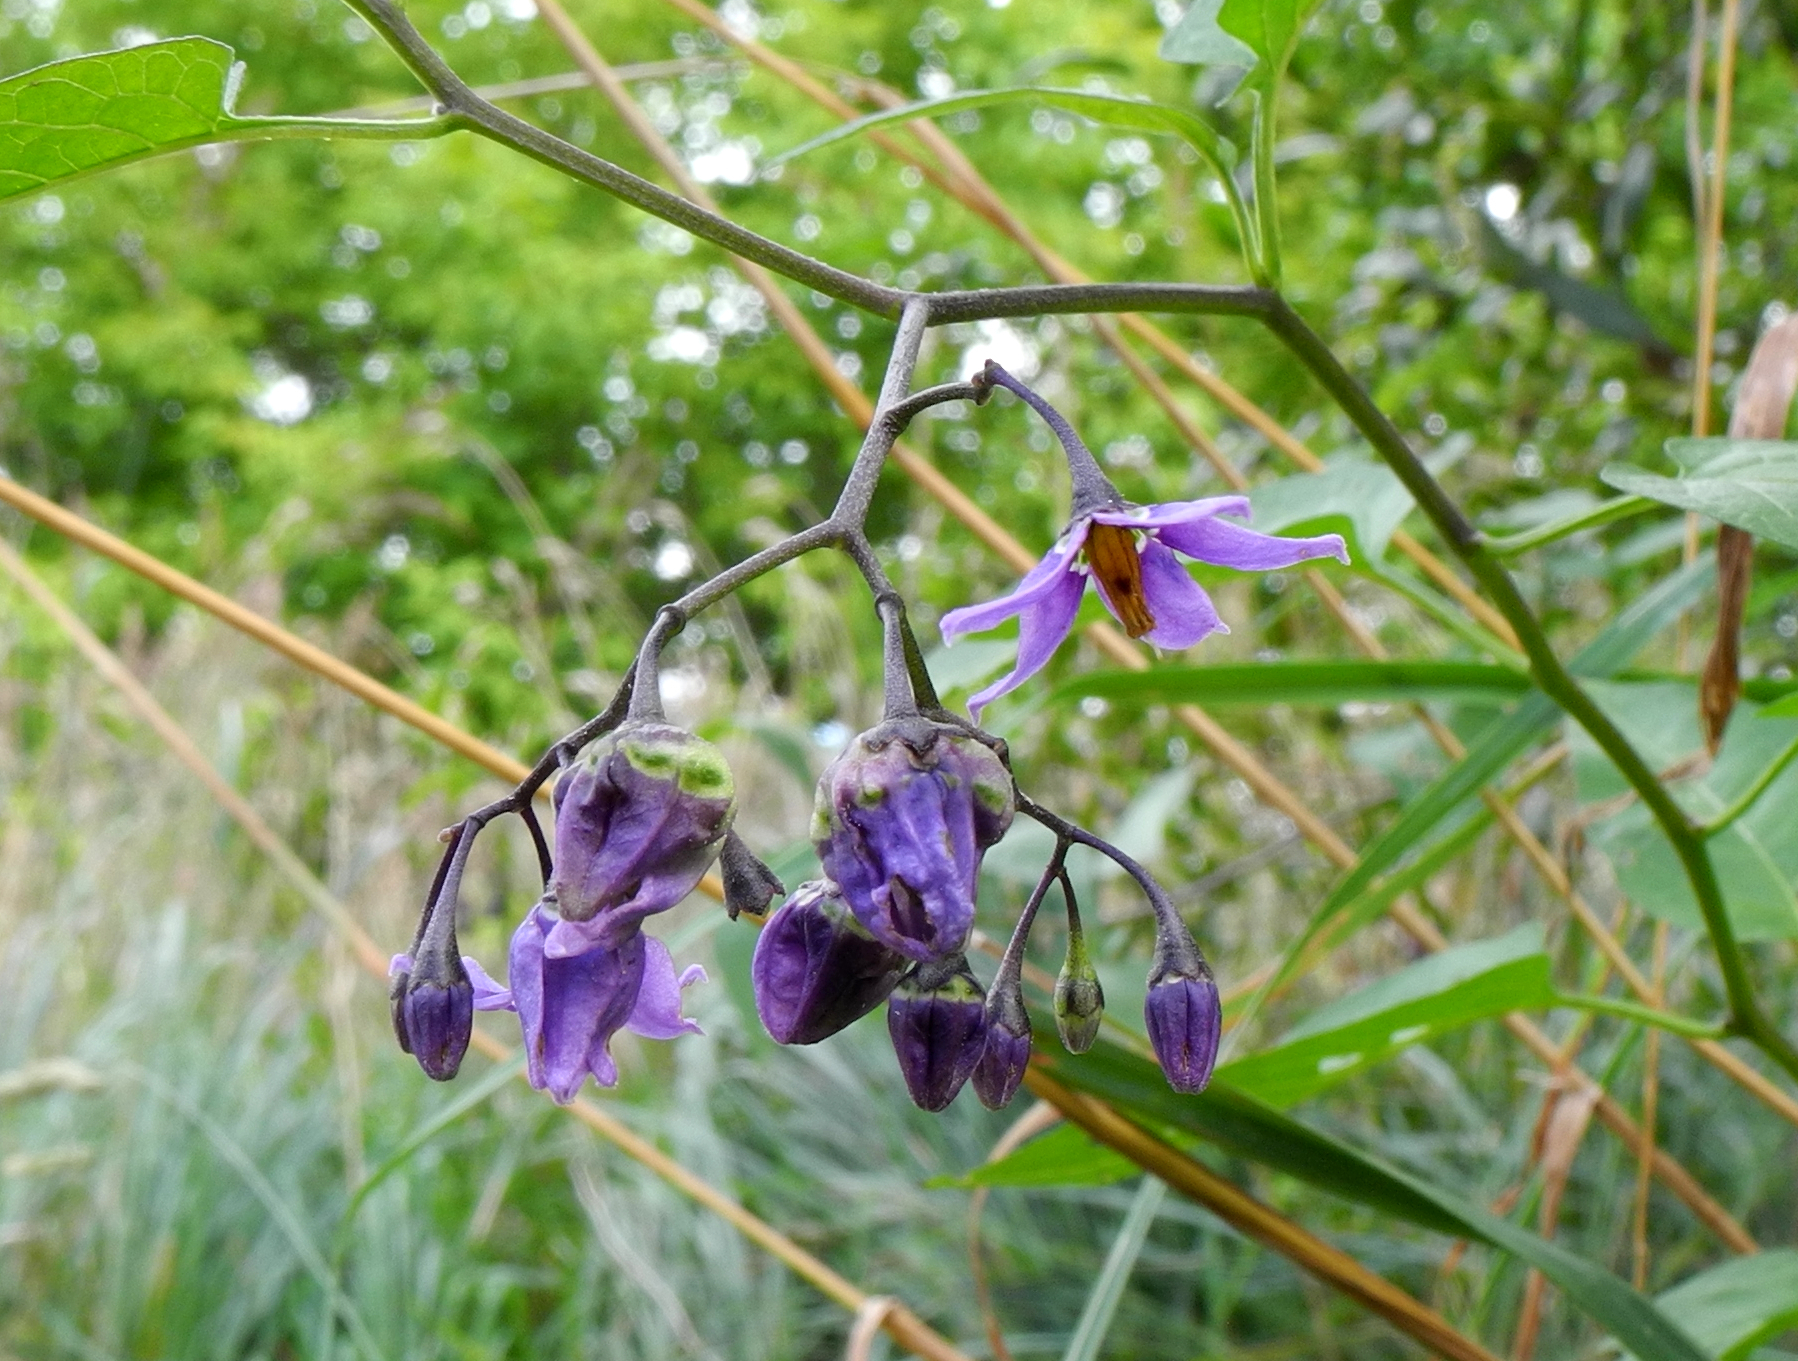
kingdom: Plantae
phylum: Tracheophyta
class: Magnoliopsida
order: Solanales
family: Solanaceae
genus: Solanum
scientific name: Solanum dulcamara
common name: Climbing nightshade
